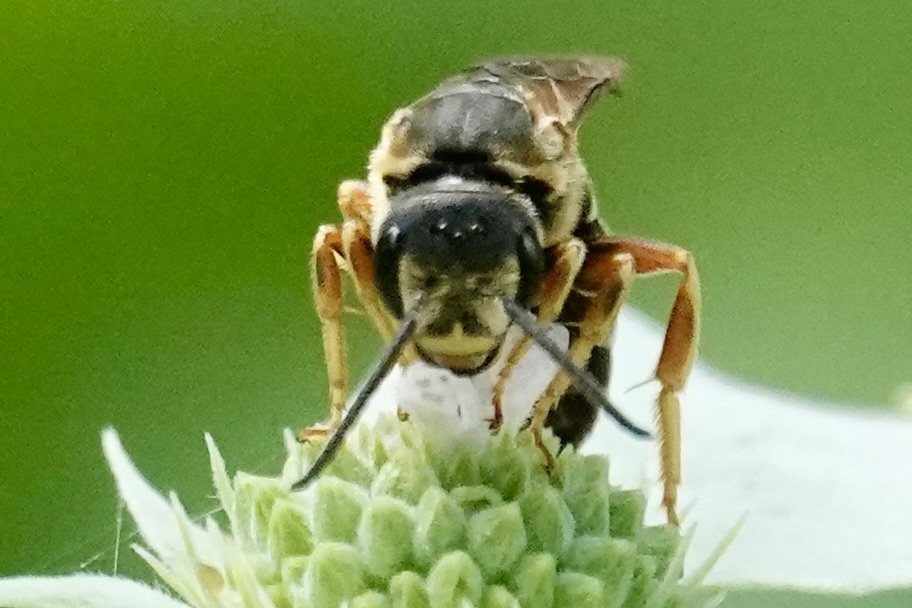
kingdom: Animalia
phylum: Arthropoda
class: Insecta
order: Hymenoptera
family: Halictidae
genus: Halictus
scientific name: Halictus parallelus
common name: Parallel-striped sweat bee
